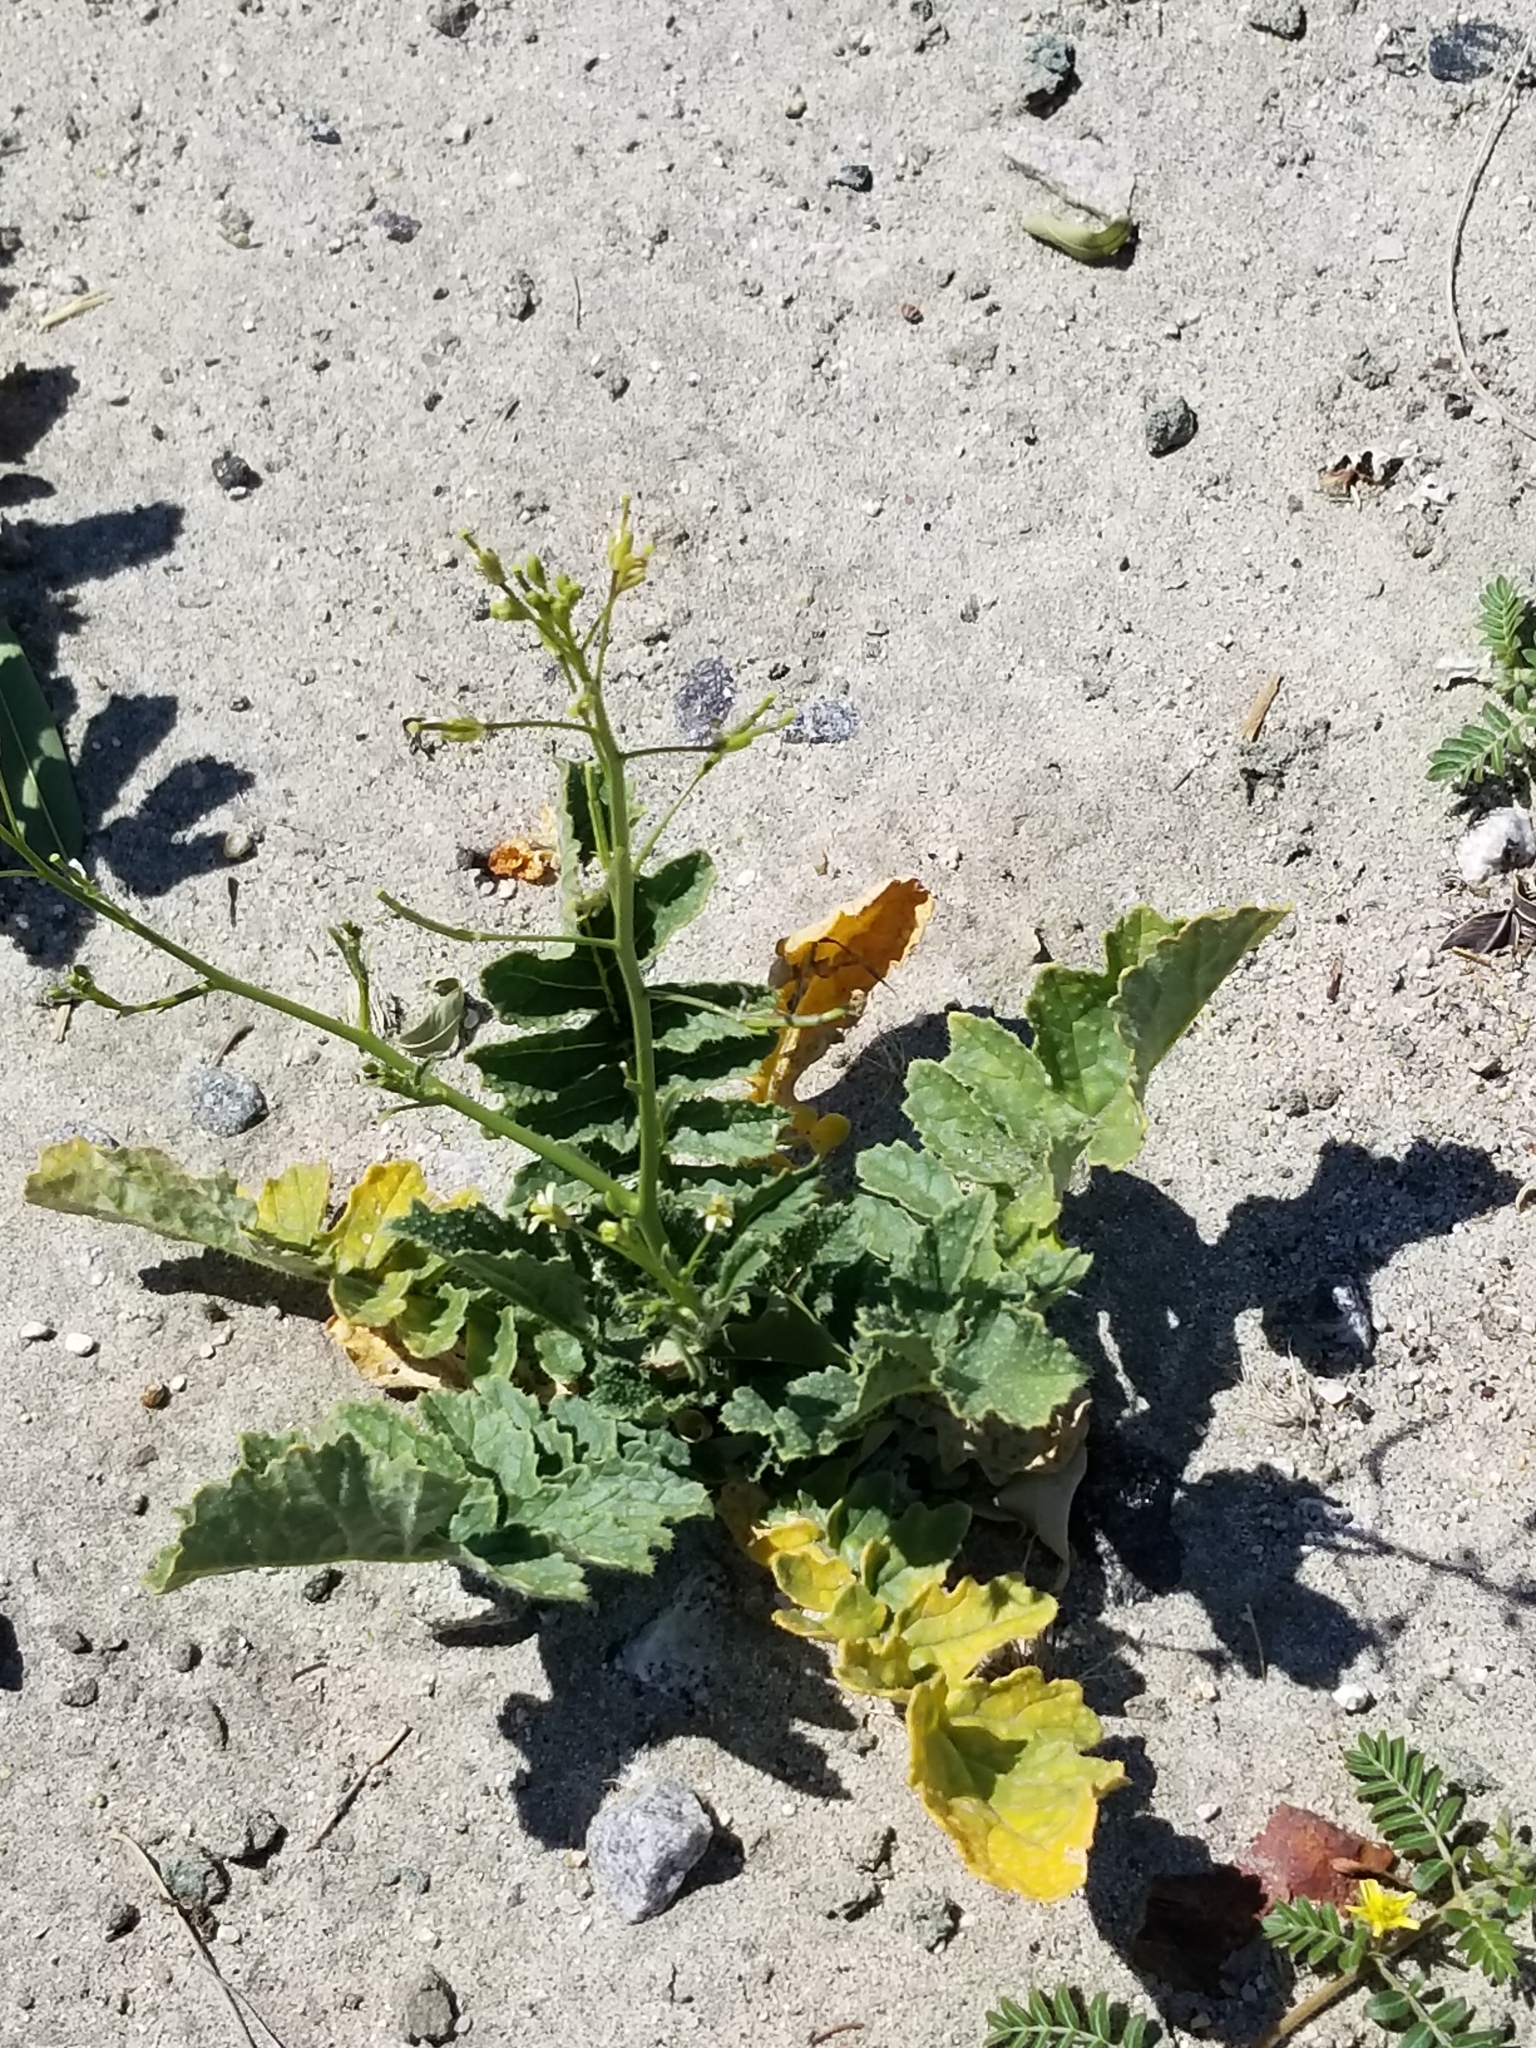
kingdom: Plantae
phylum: Tracheophyta
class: Magnoliopsida
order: Brassicales
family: Brassicaceae
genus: Brassica
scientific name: Brassica tournefortii
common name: Pale cabbage
